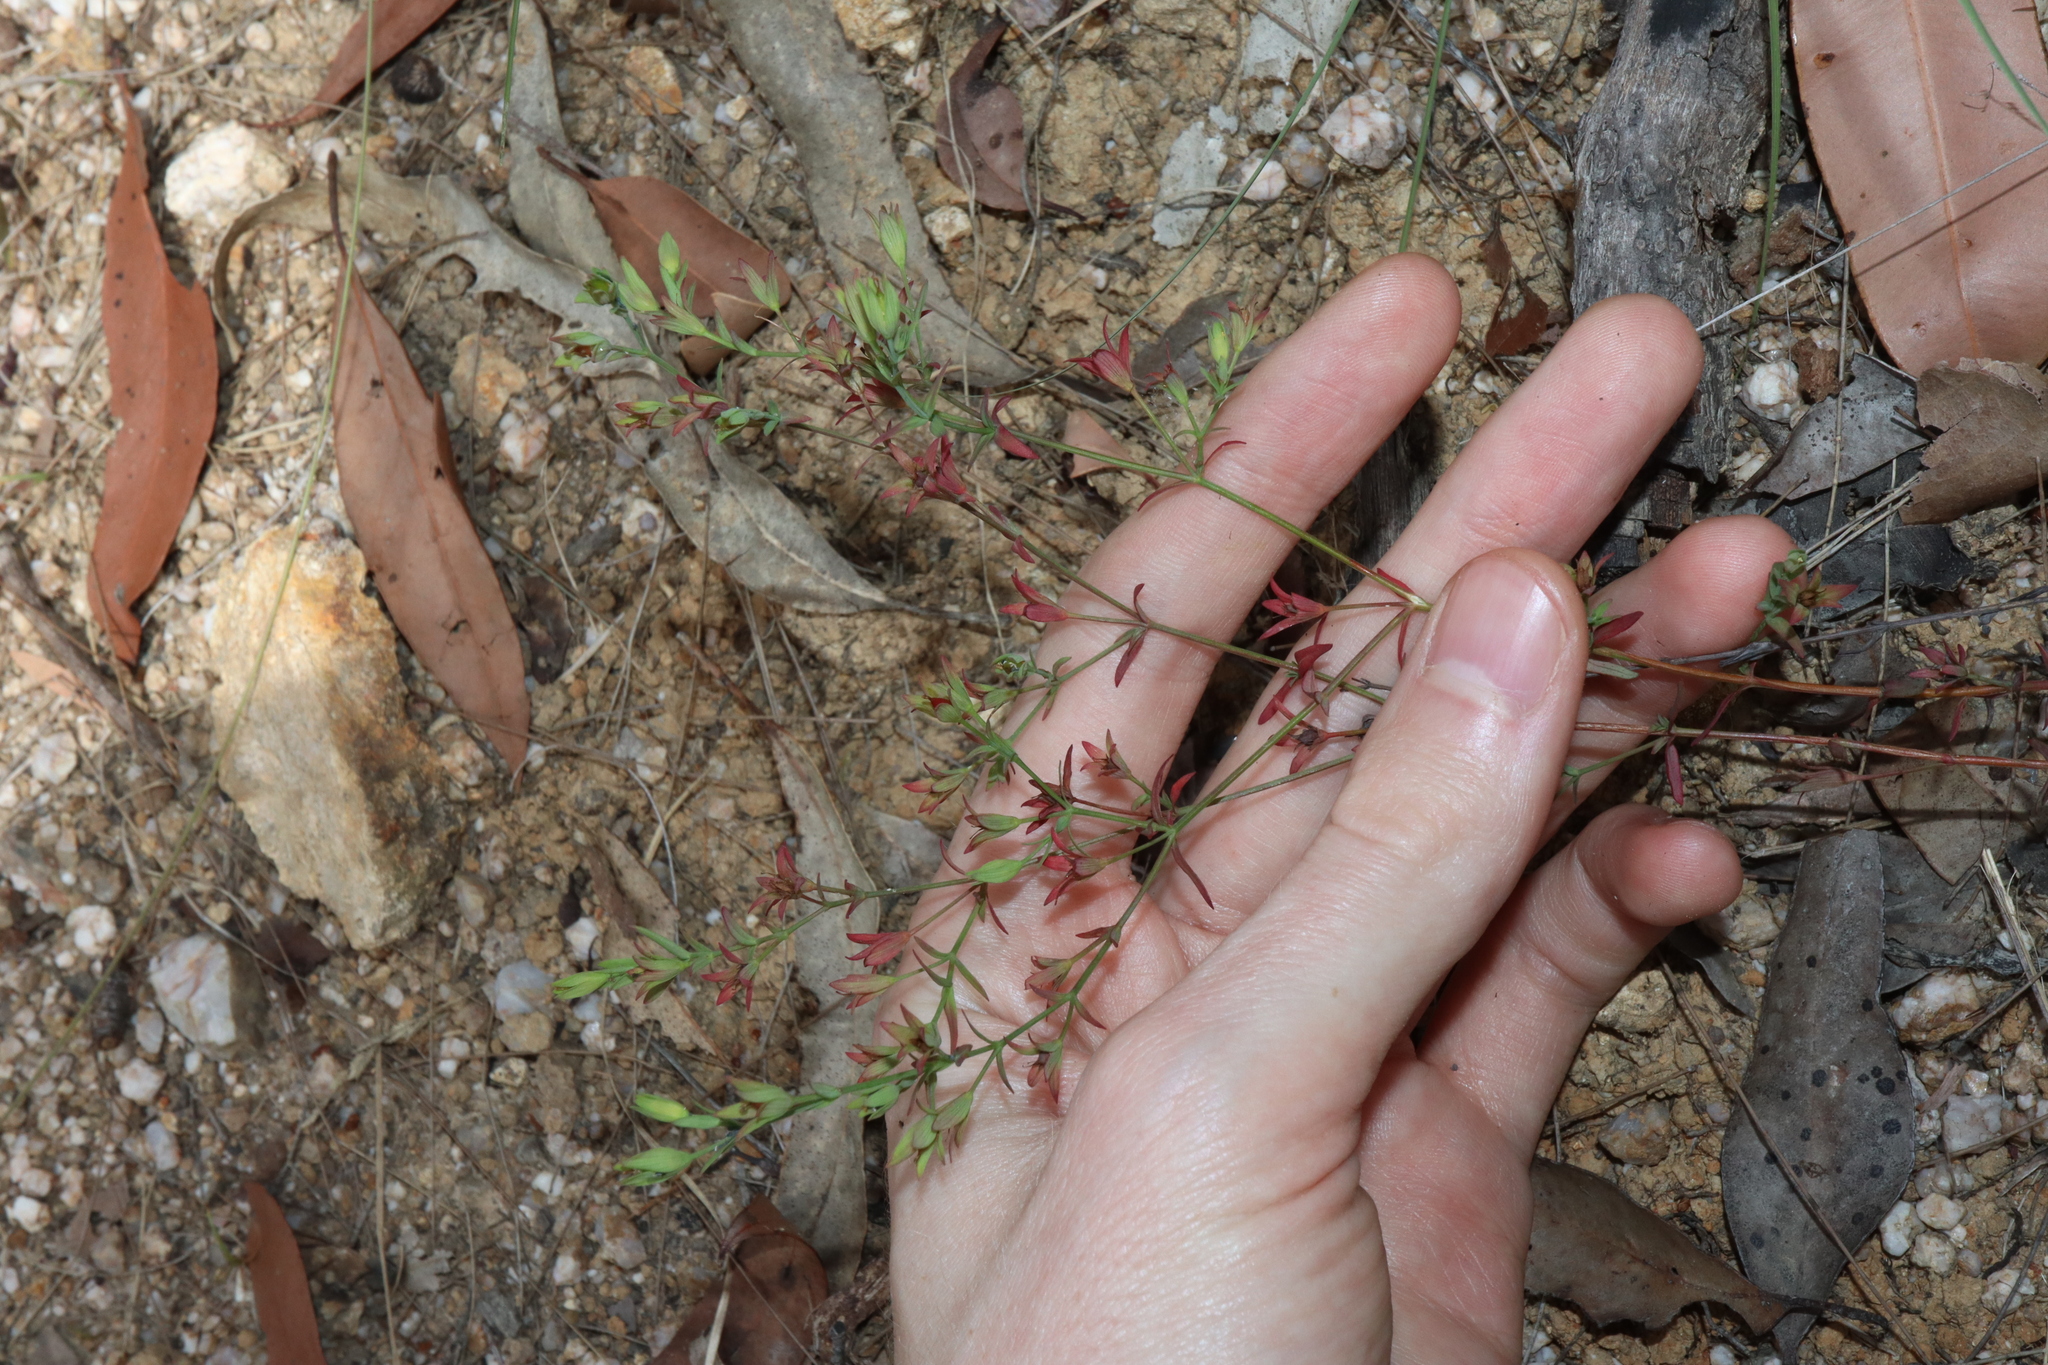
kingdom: Plantae
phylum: Tracheophyta
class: Magnoliopsida
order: Malpighiales
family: Hypericaceae
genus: Hypericum
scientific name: Hypericum gramineum
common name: Grassy st. johnswort
